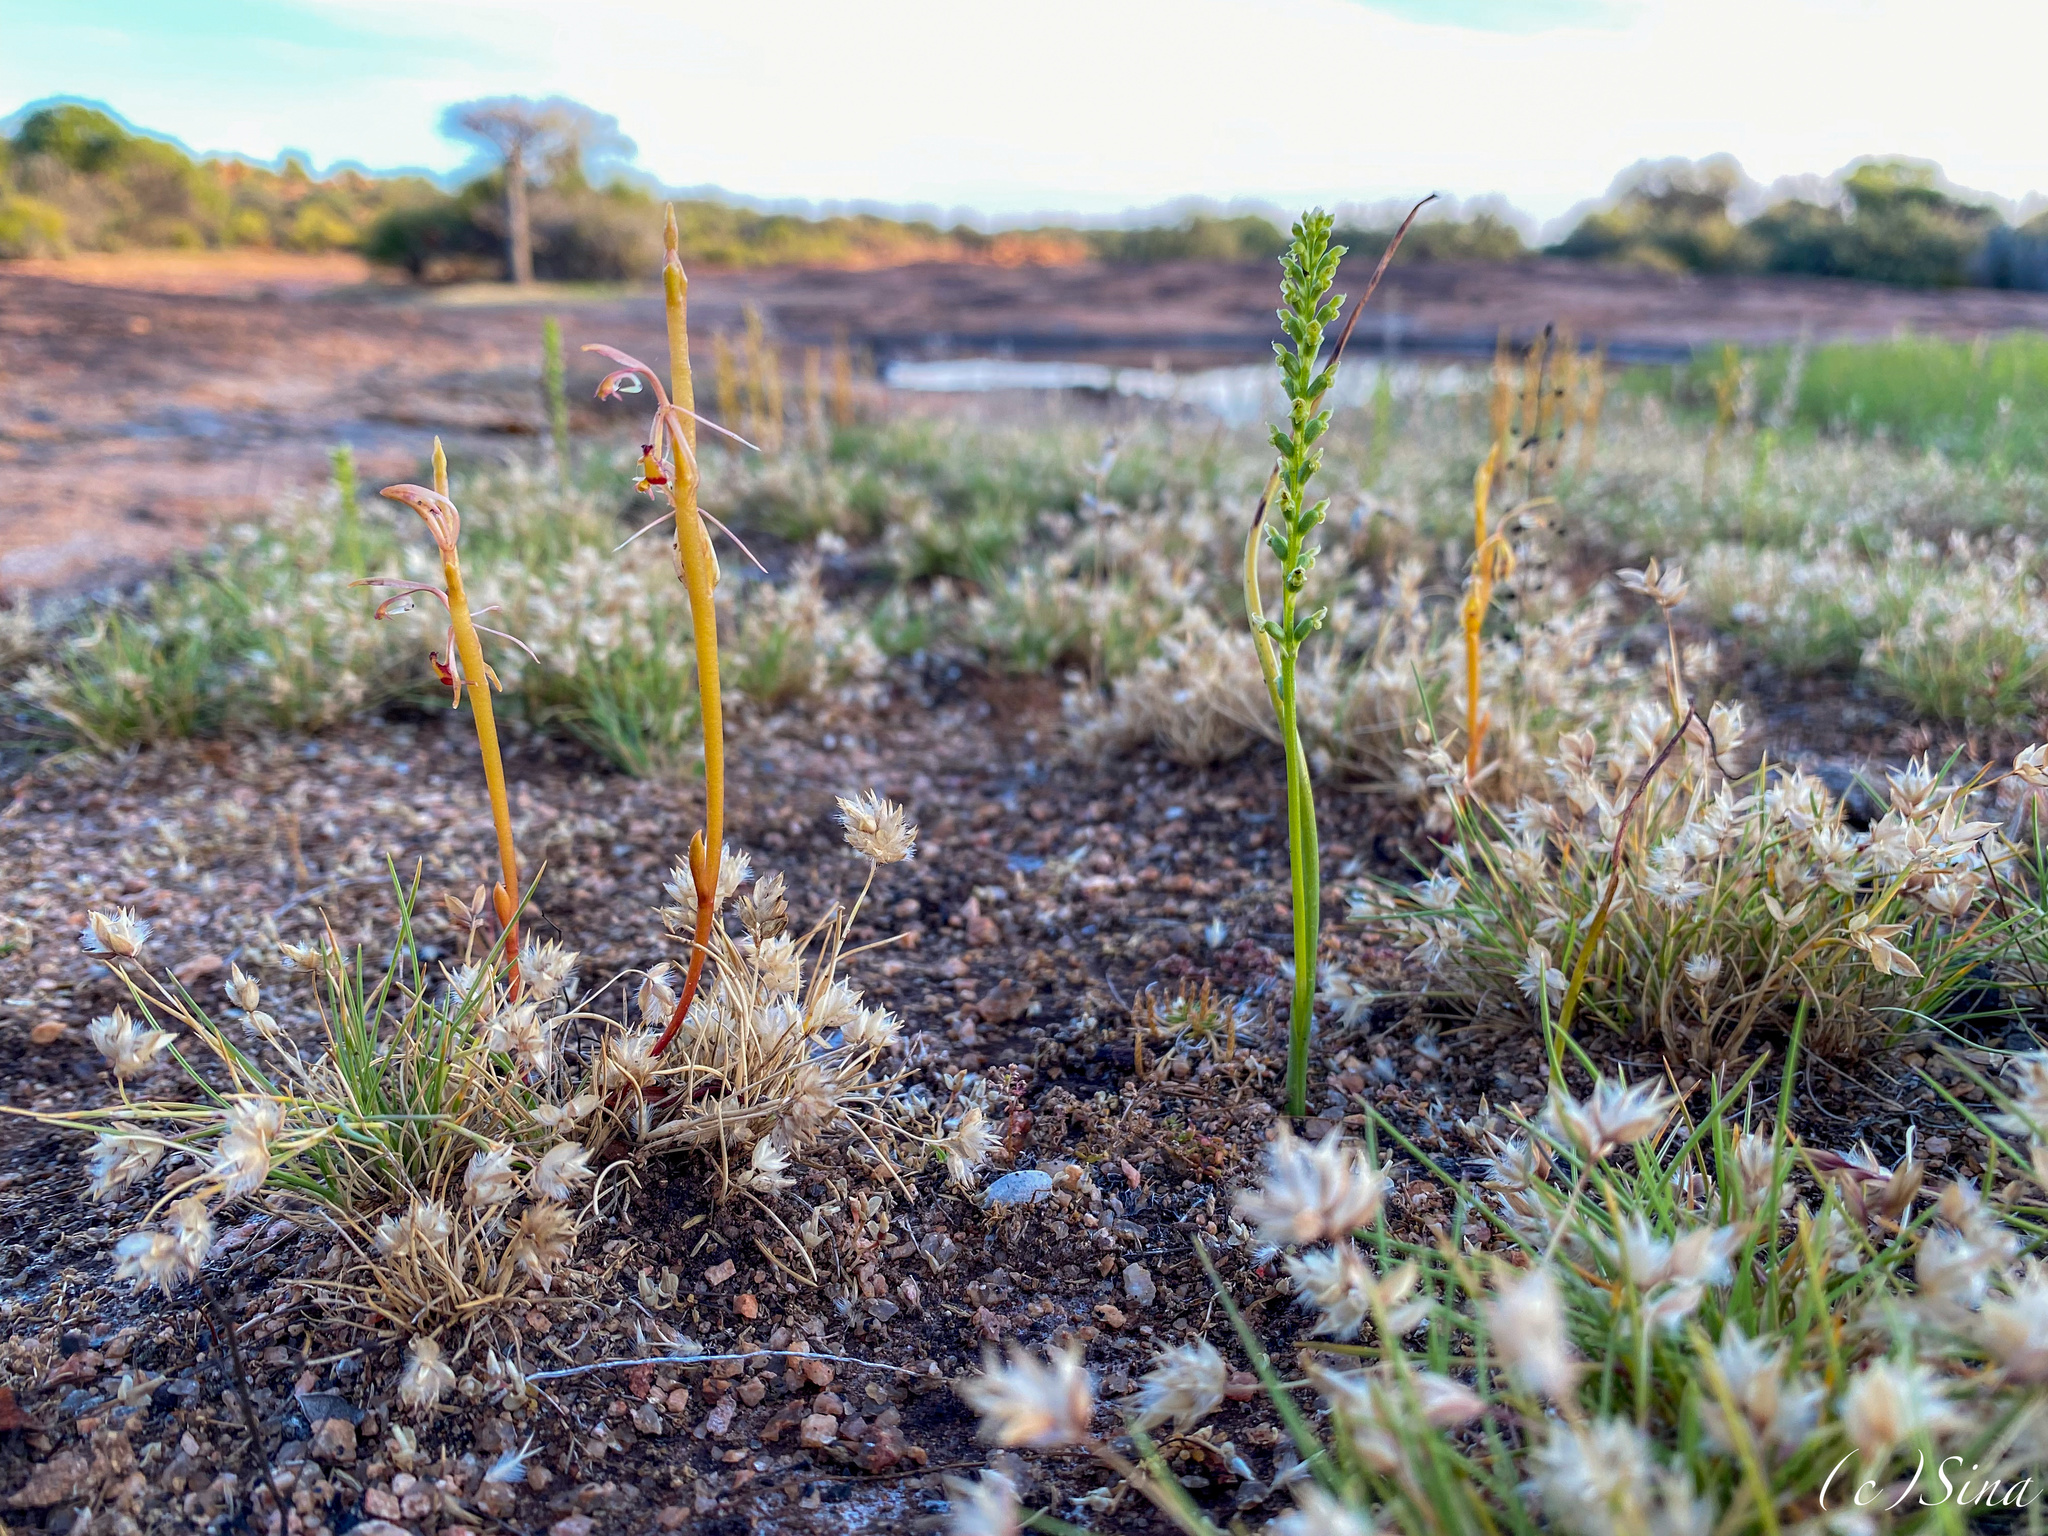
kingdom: Plantae
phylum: Tracheophyta
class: Liliopsida
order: Asparagales
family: Orchidaceae
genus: Microtis
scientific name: Microtis eremaea
